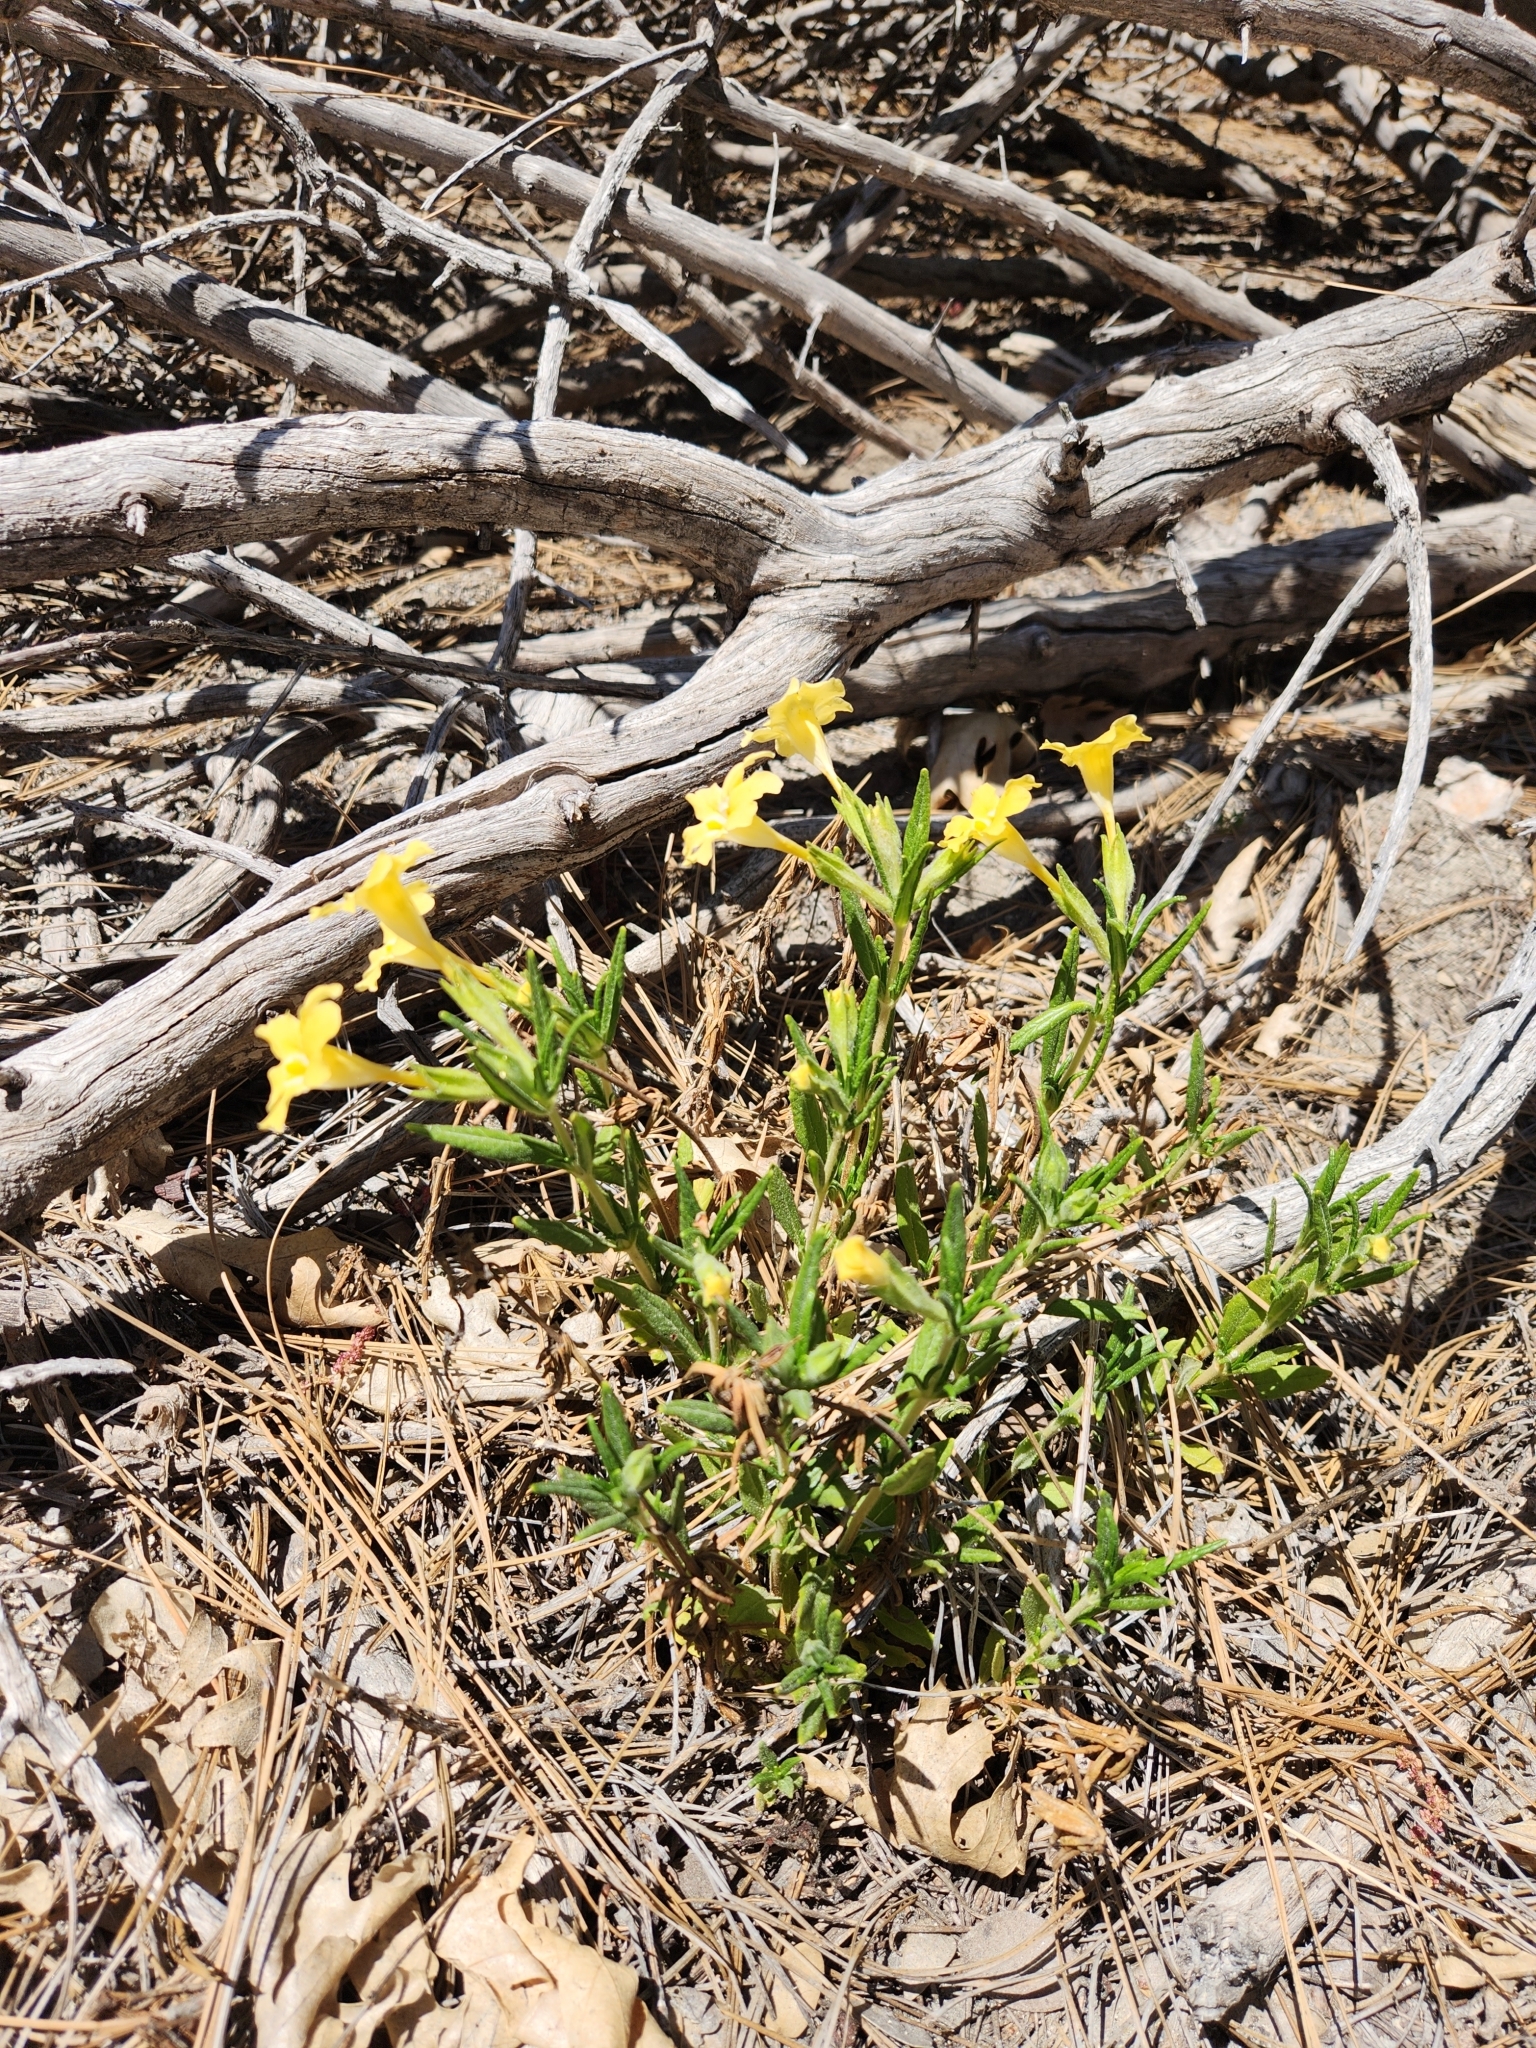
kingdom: Plantae
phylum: Tracheophyta
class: Magnoliopsida
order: Lamiales
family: Phrymaceae
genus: Diplacus
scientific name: Diplacus calycinus
